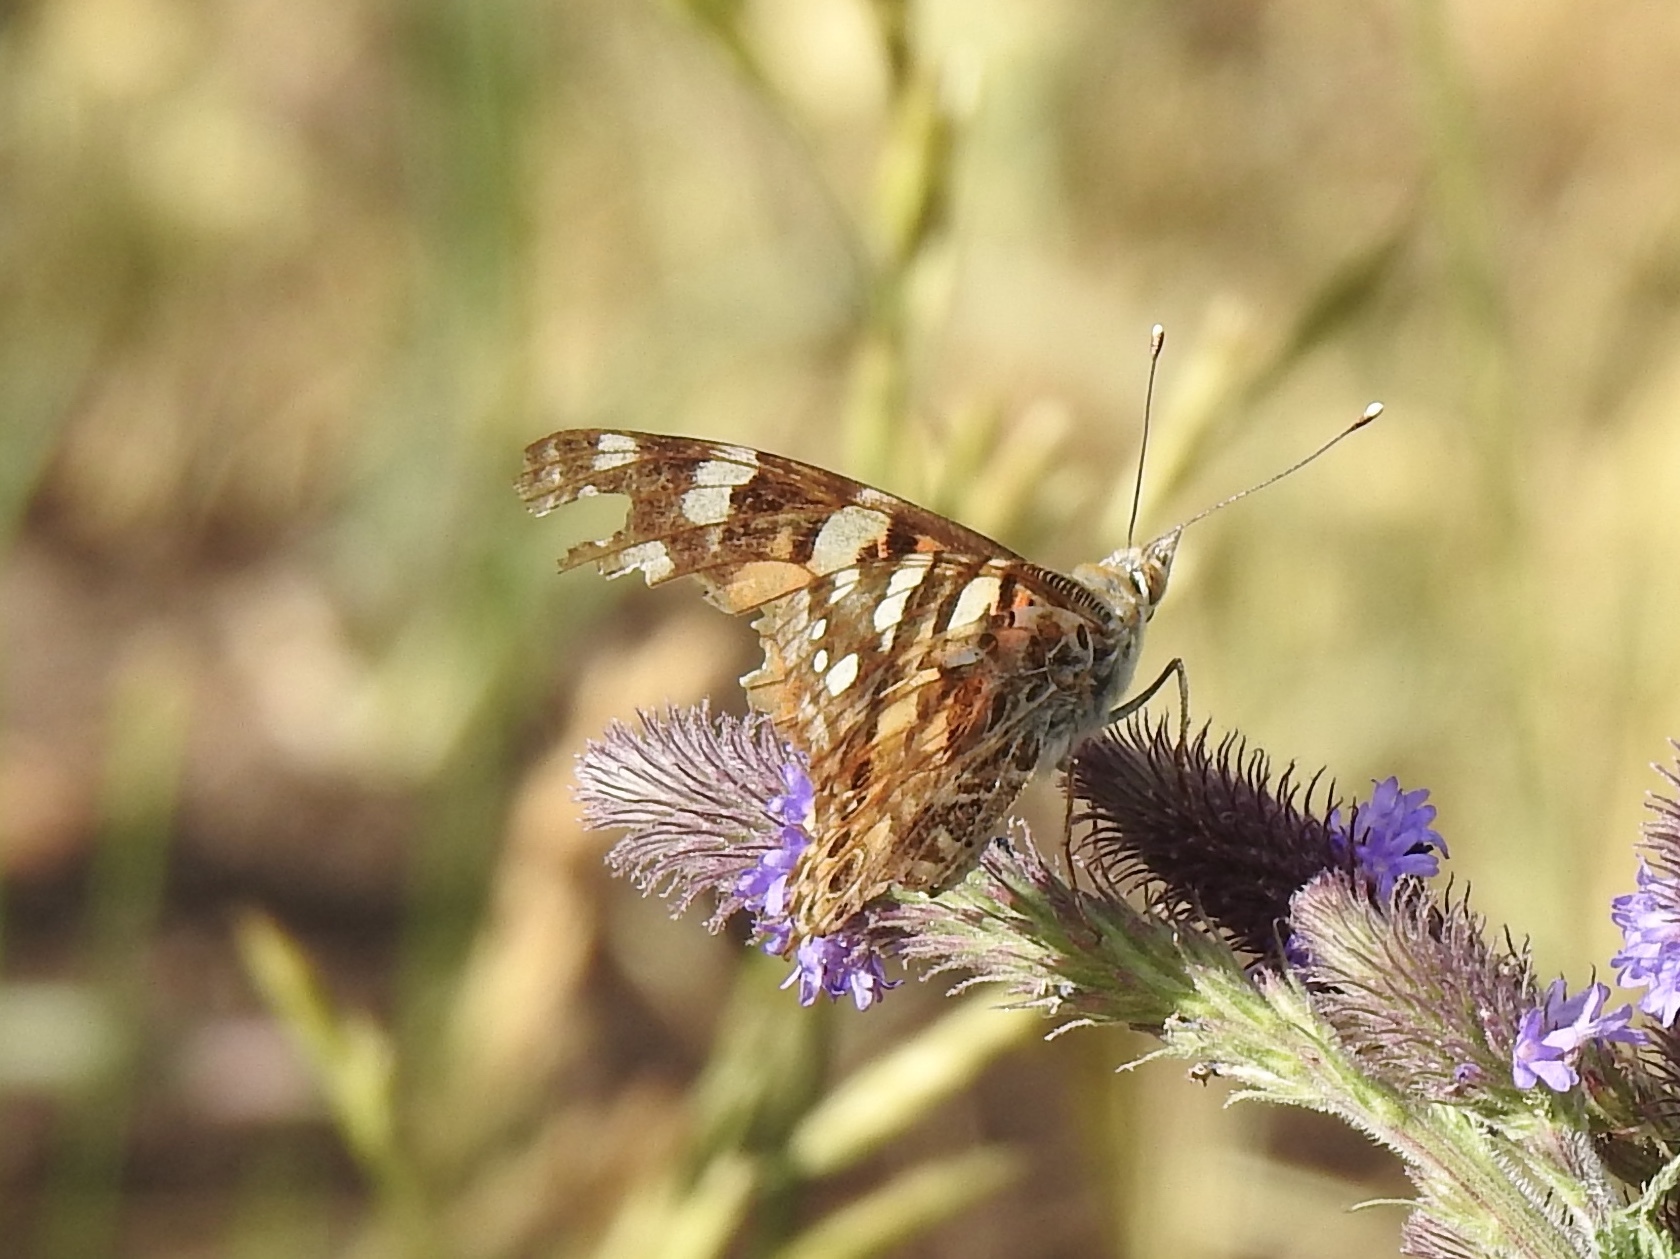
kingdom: Animalia
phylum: Arthropoda
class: Insecta
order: Lepidoptera
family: Nymphalidae
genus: Vanessa
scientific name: Vanessa cardui
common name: Painted lady
